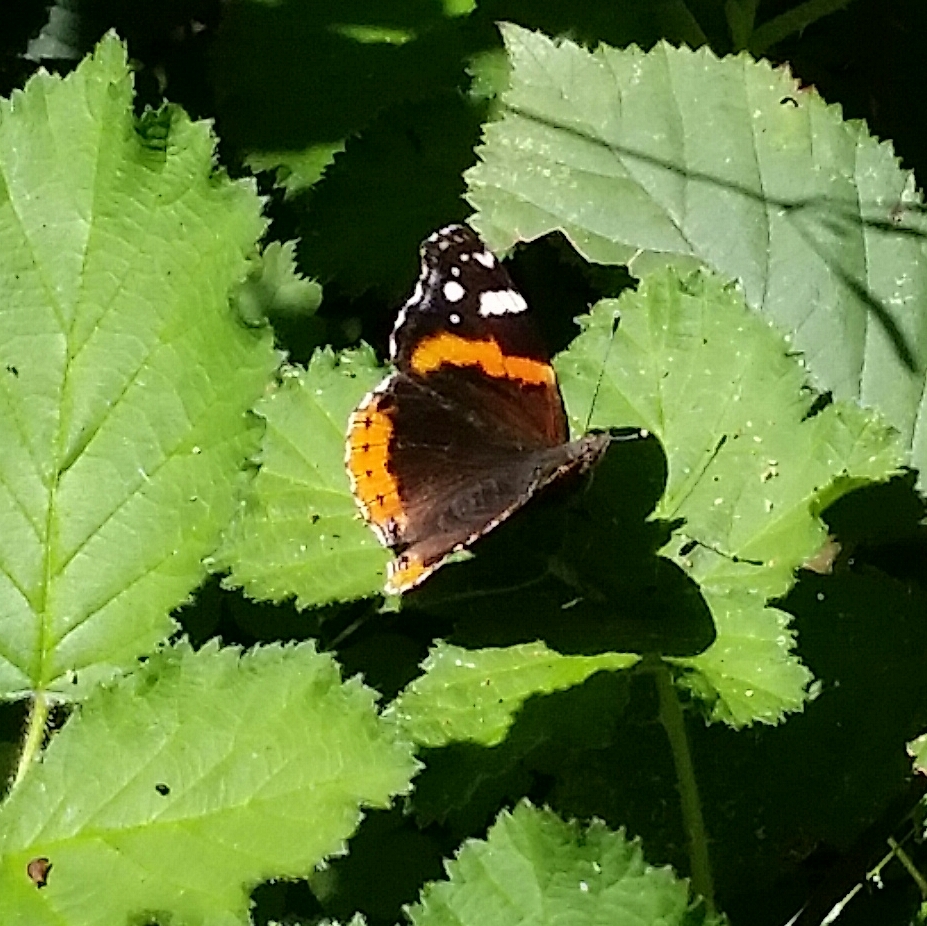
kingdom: Animalia
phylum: Arthropoda
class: Insecta
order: Lepidoptera
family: Nymphalidae
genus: Vanessa
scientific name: Vanessa atalanta
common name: Red admiral
